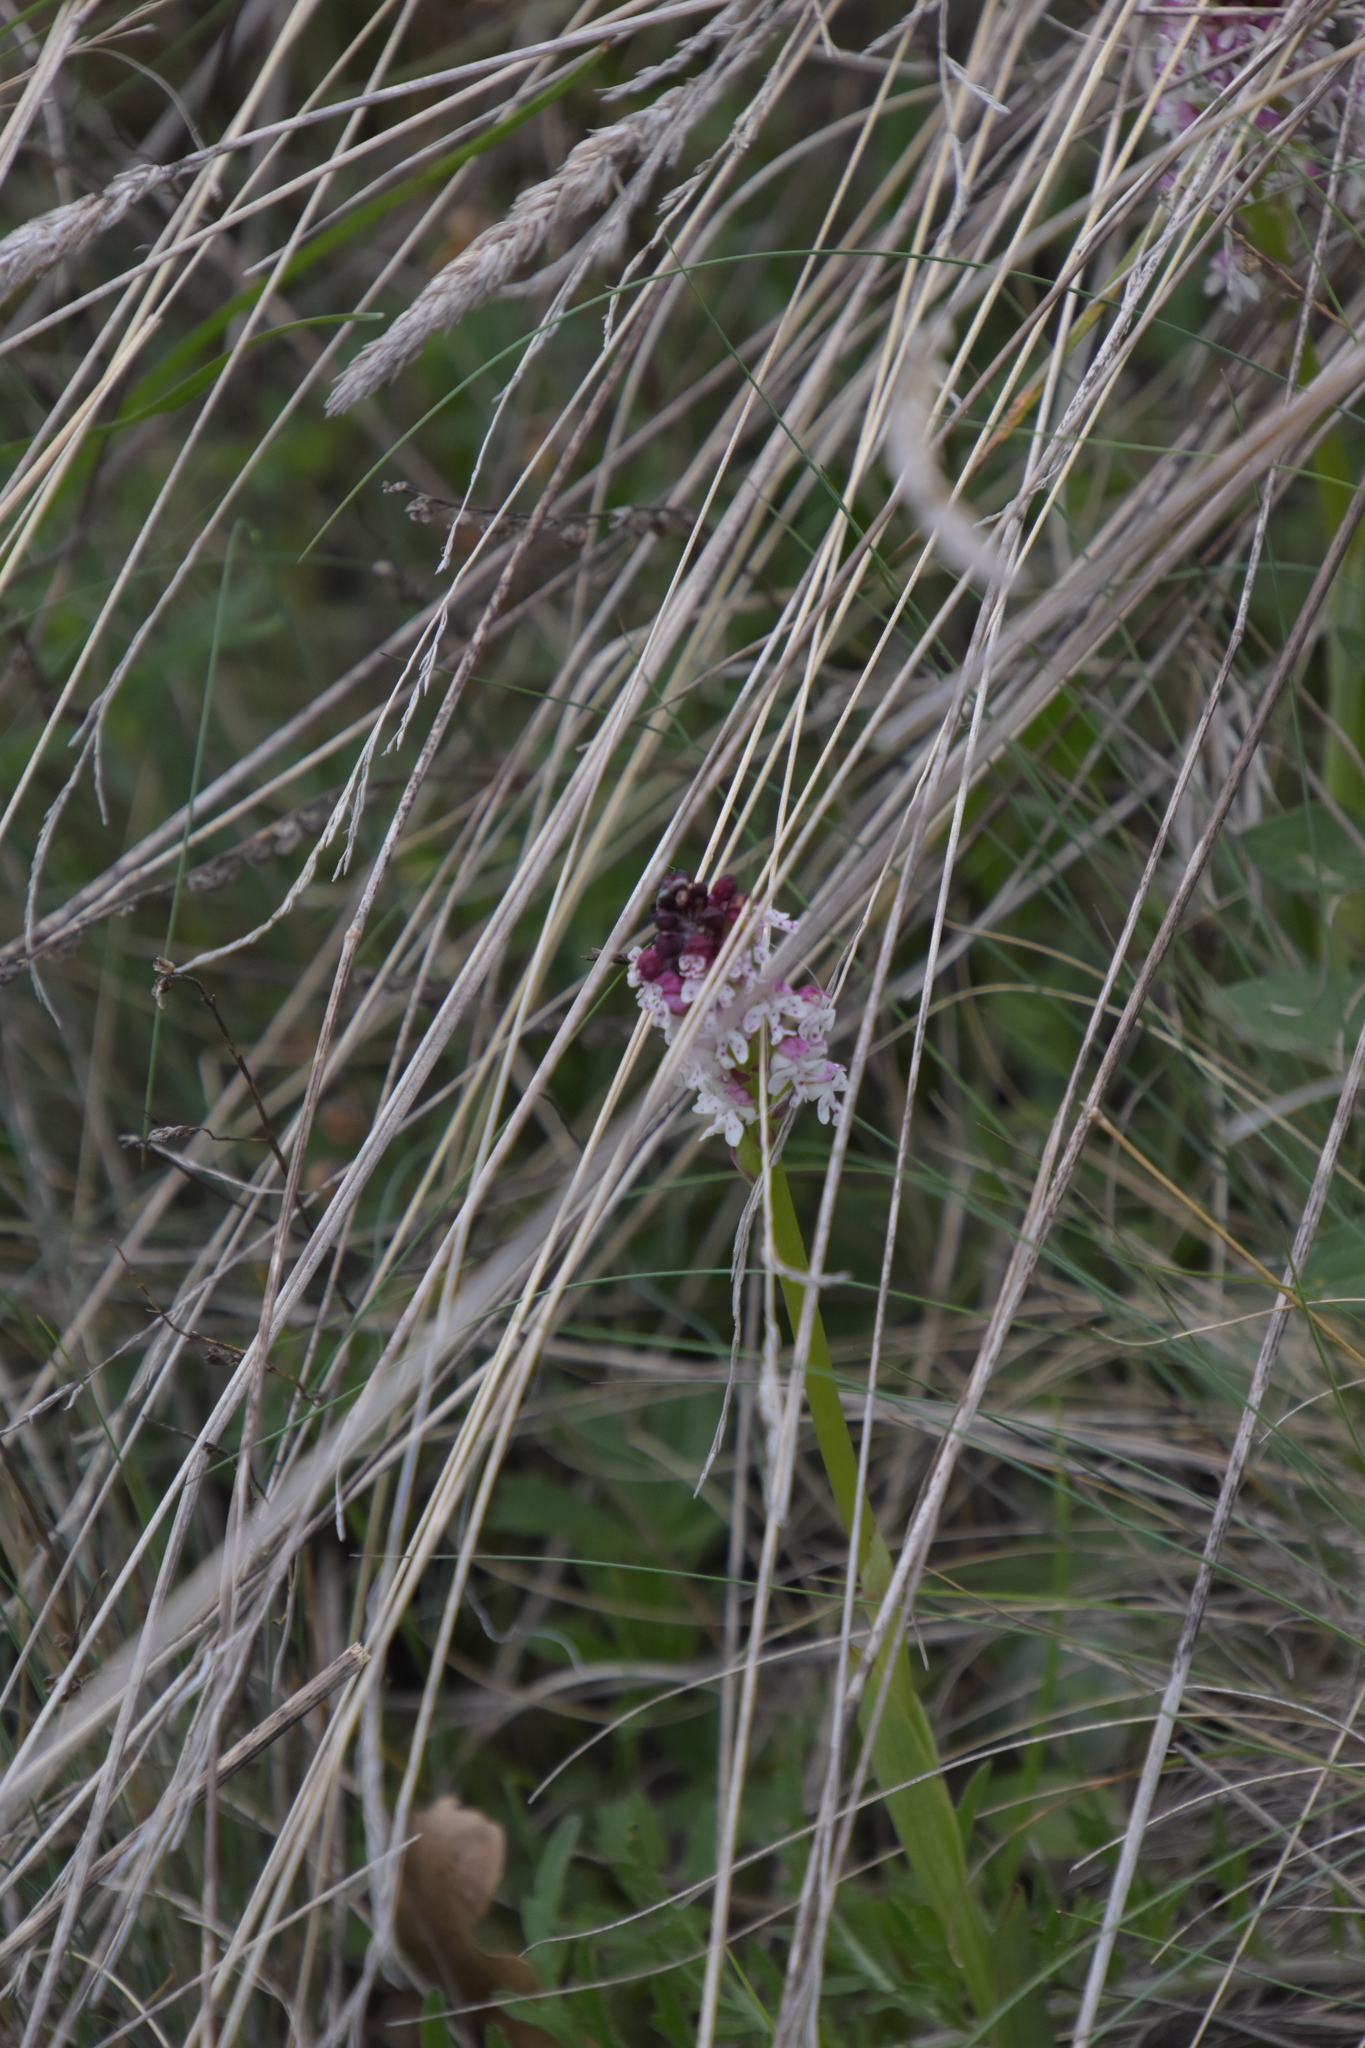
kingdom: Plantae
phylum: Tracheophyta
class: Liliopsida
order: Asparagales
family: Orchidaceae
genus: Neotinea
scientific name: Neotinea ustulata
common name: Burnt orchid
